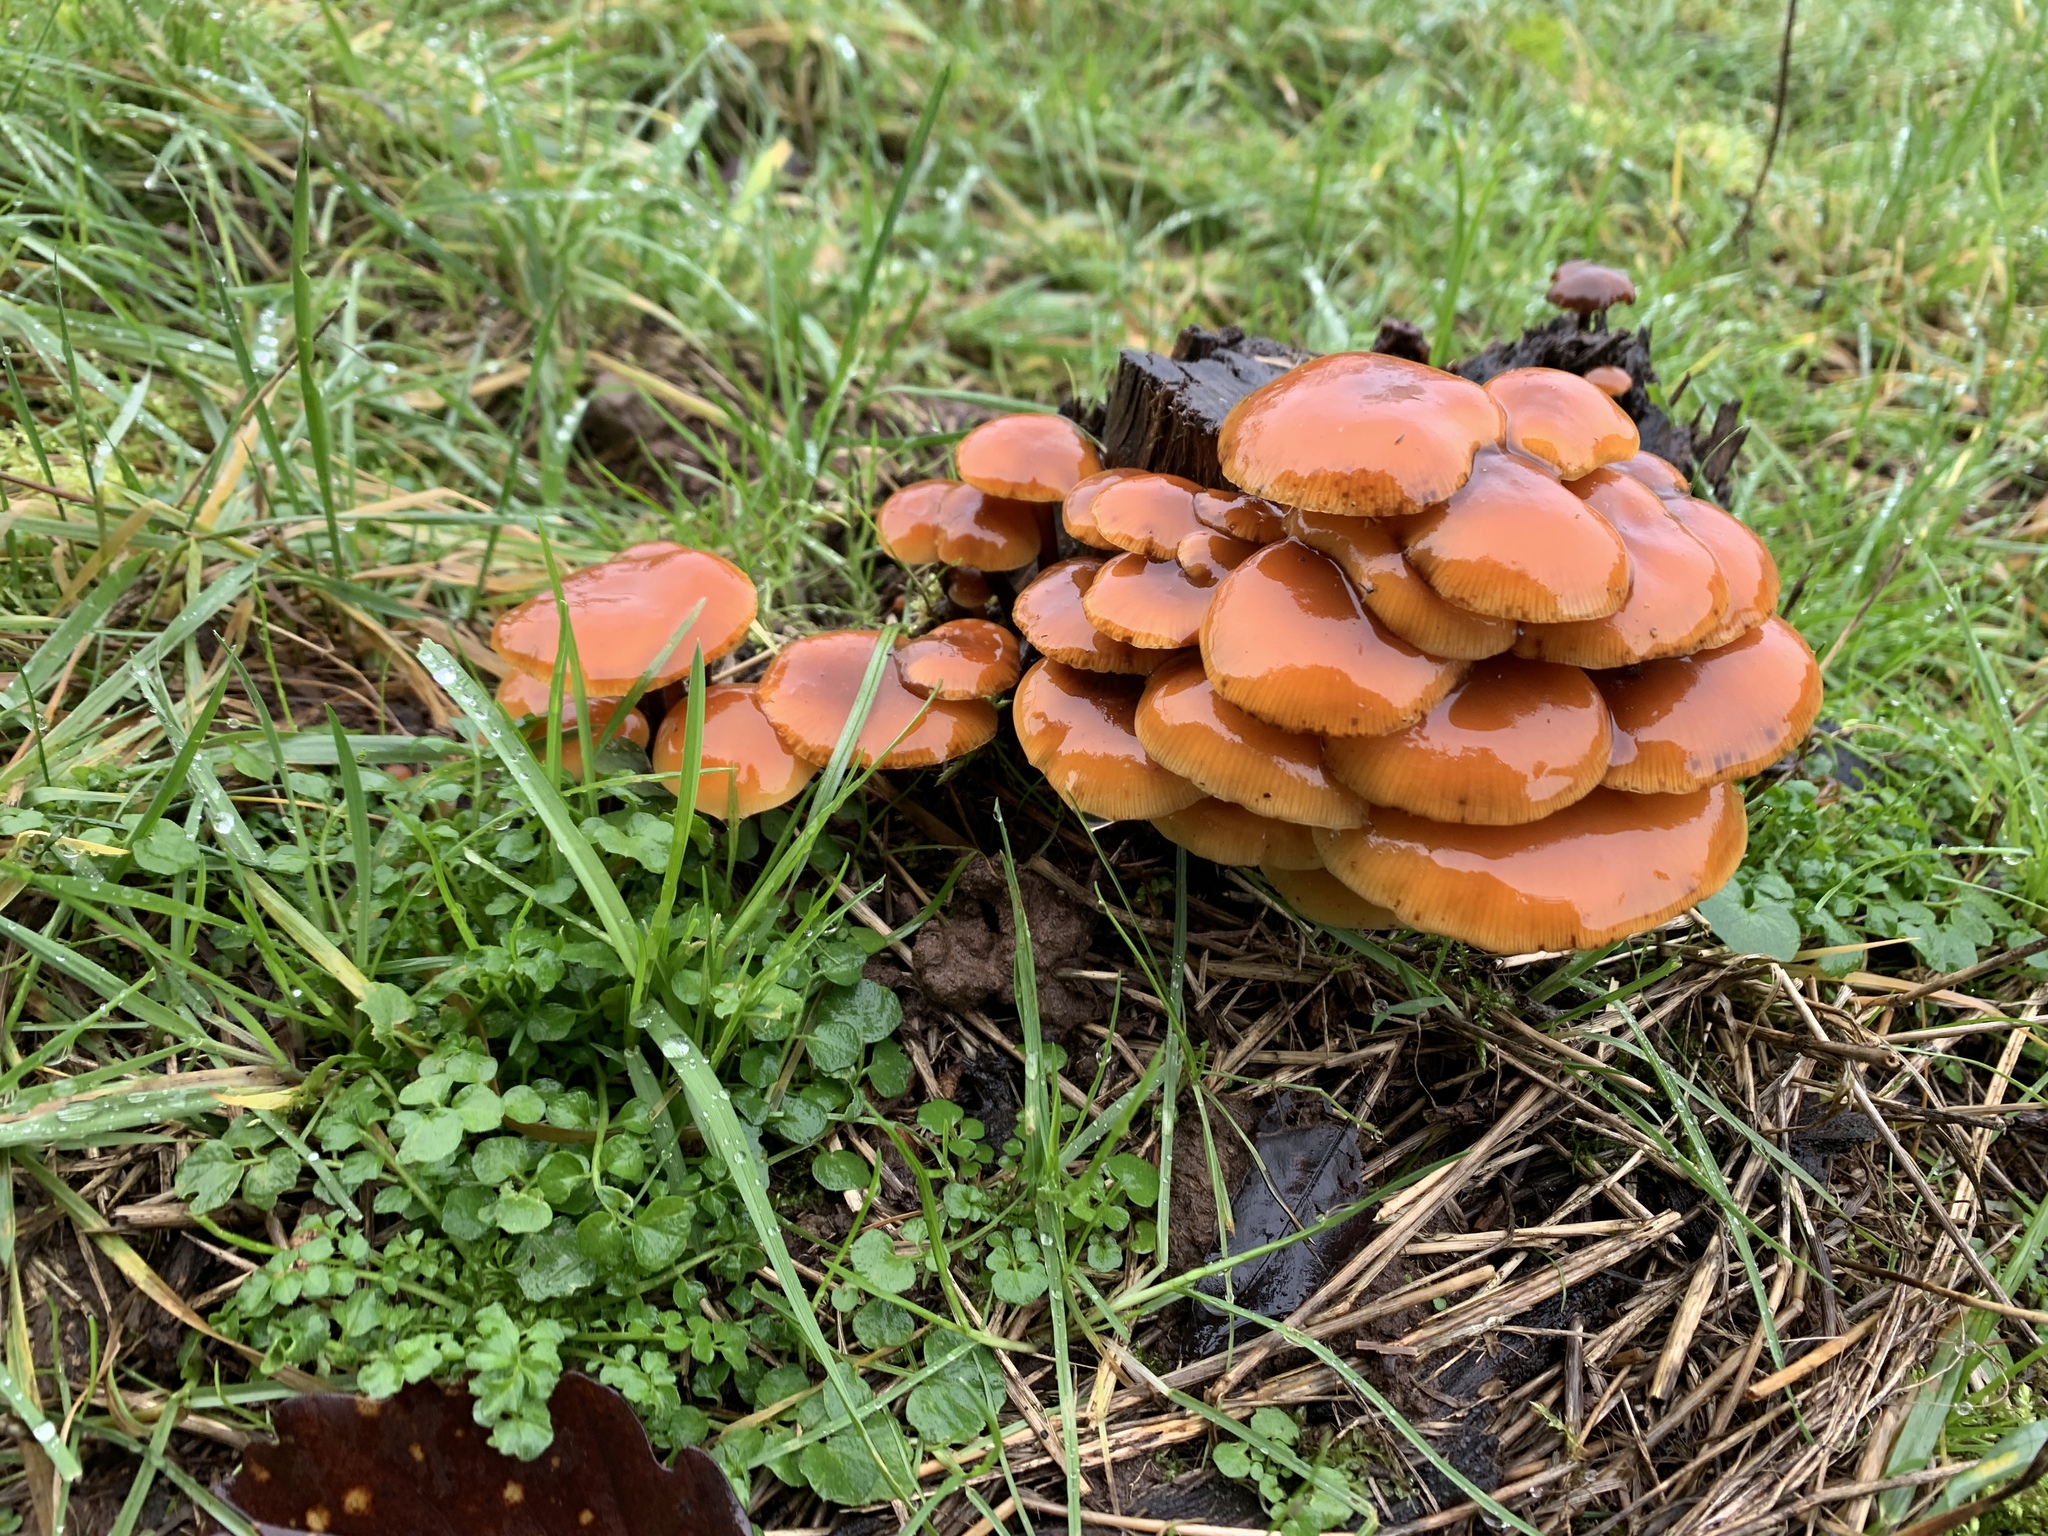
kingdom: Fungi
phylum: Basidiomycota
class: Agaricomycetes
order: Agaricales
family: Physalacriaceae
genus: Flammulina
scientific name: Flammulina
